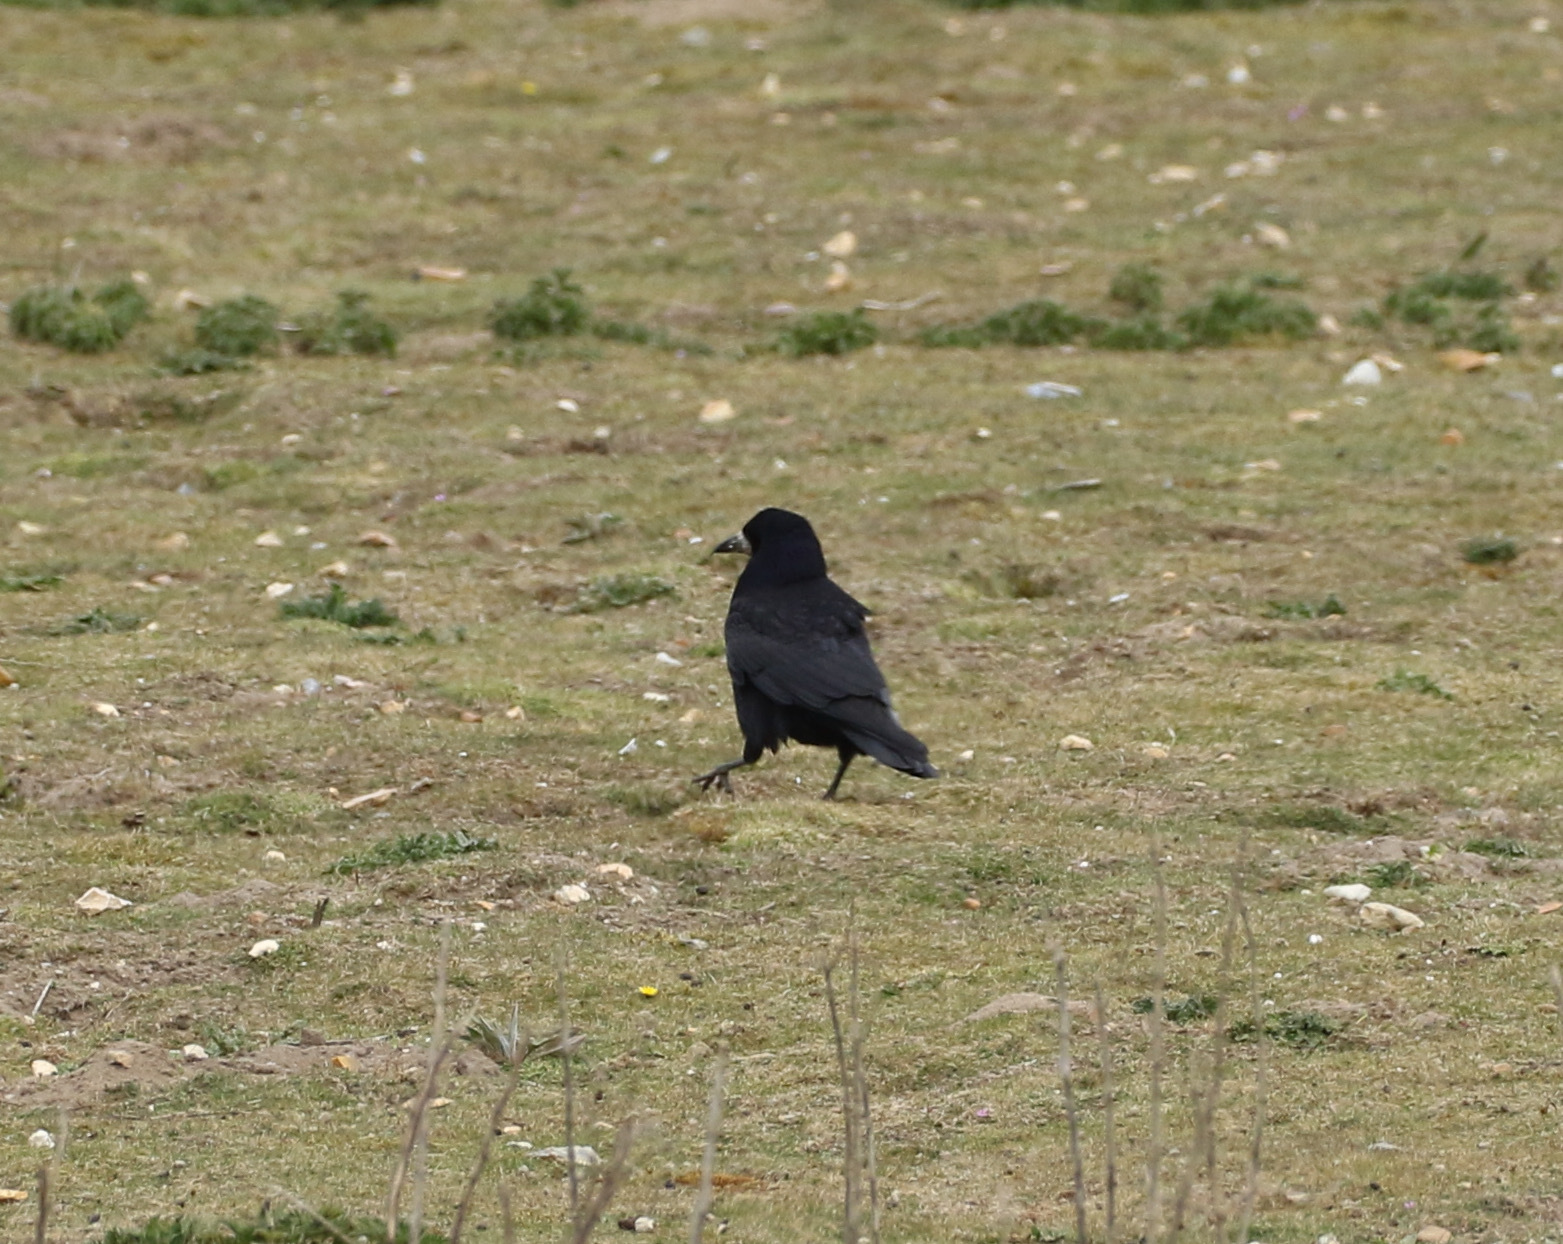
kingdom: Animalia
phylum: Chordata
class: Aves
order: Passeriformes
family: Corvidae
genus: Corvus
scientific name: Corvus frugilegus
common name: Rook
